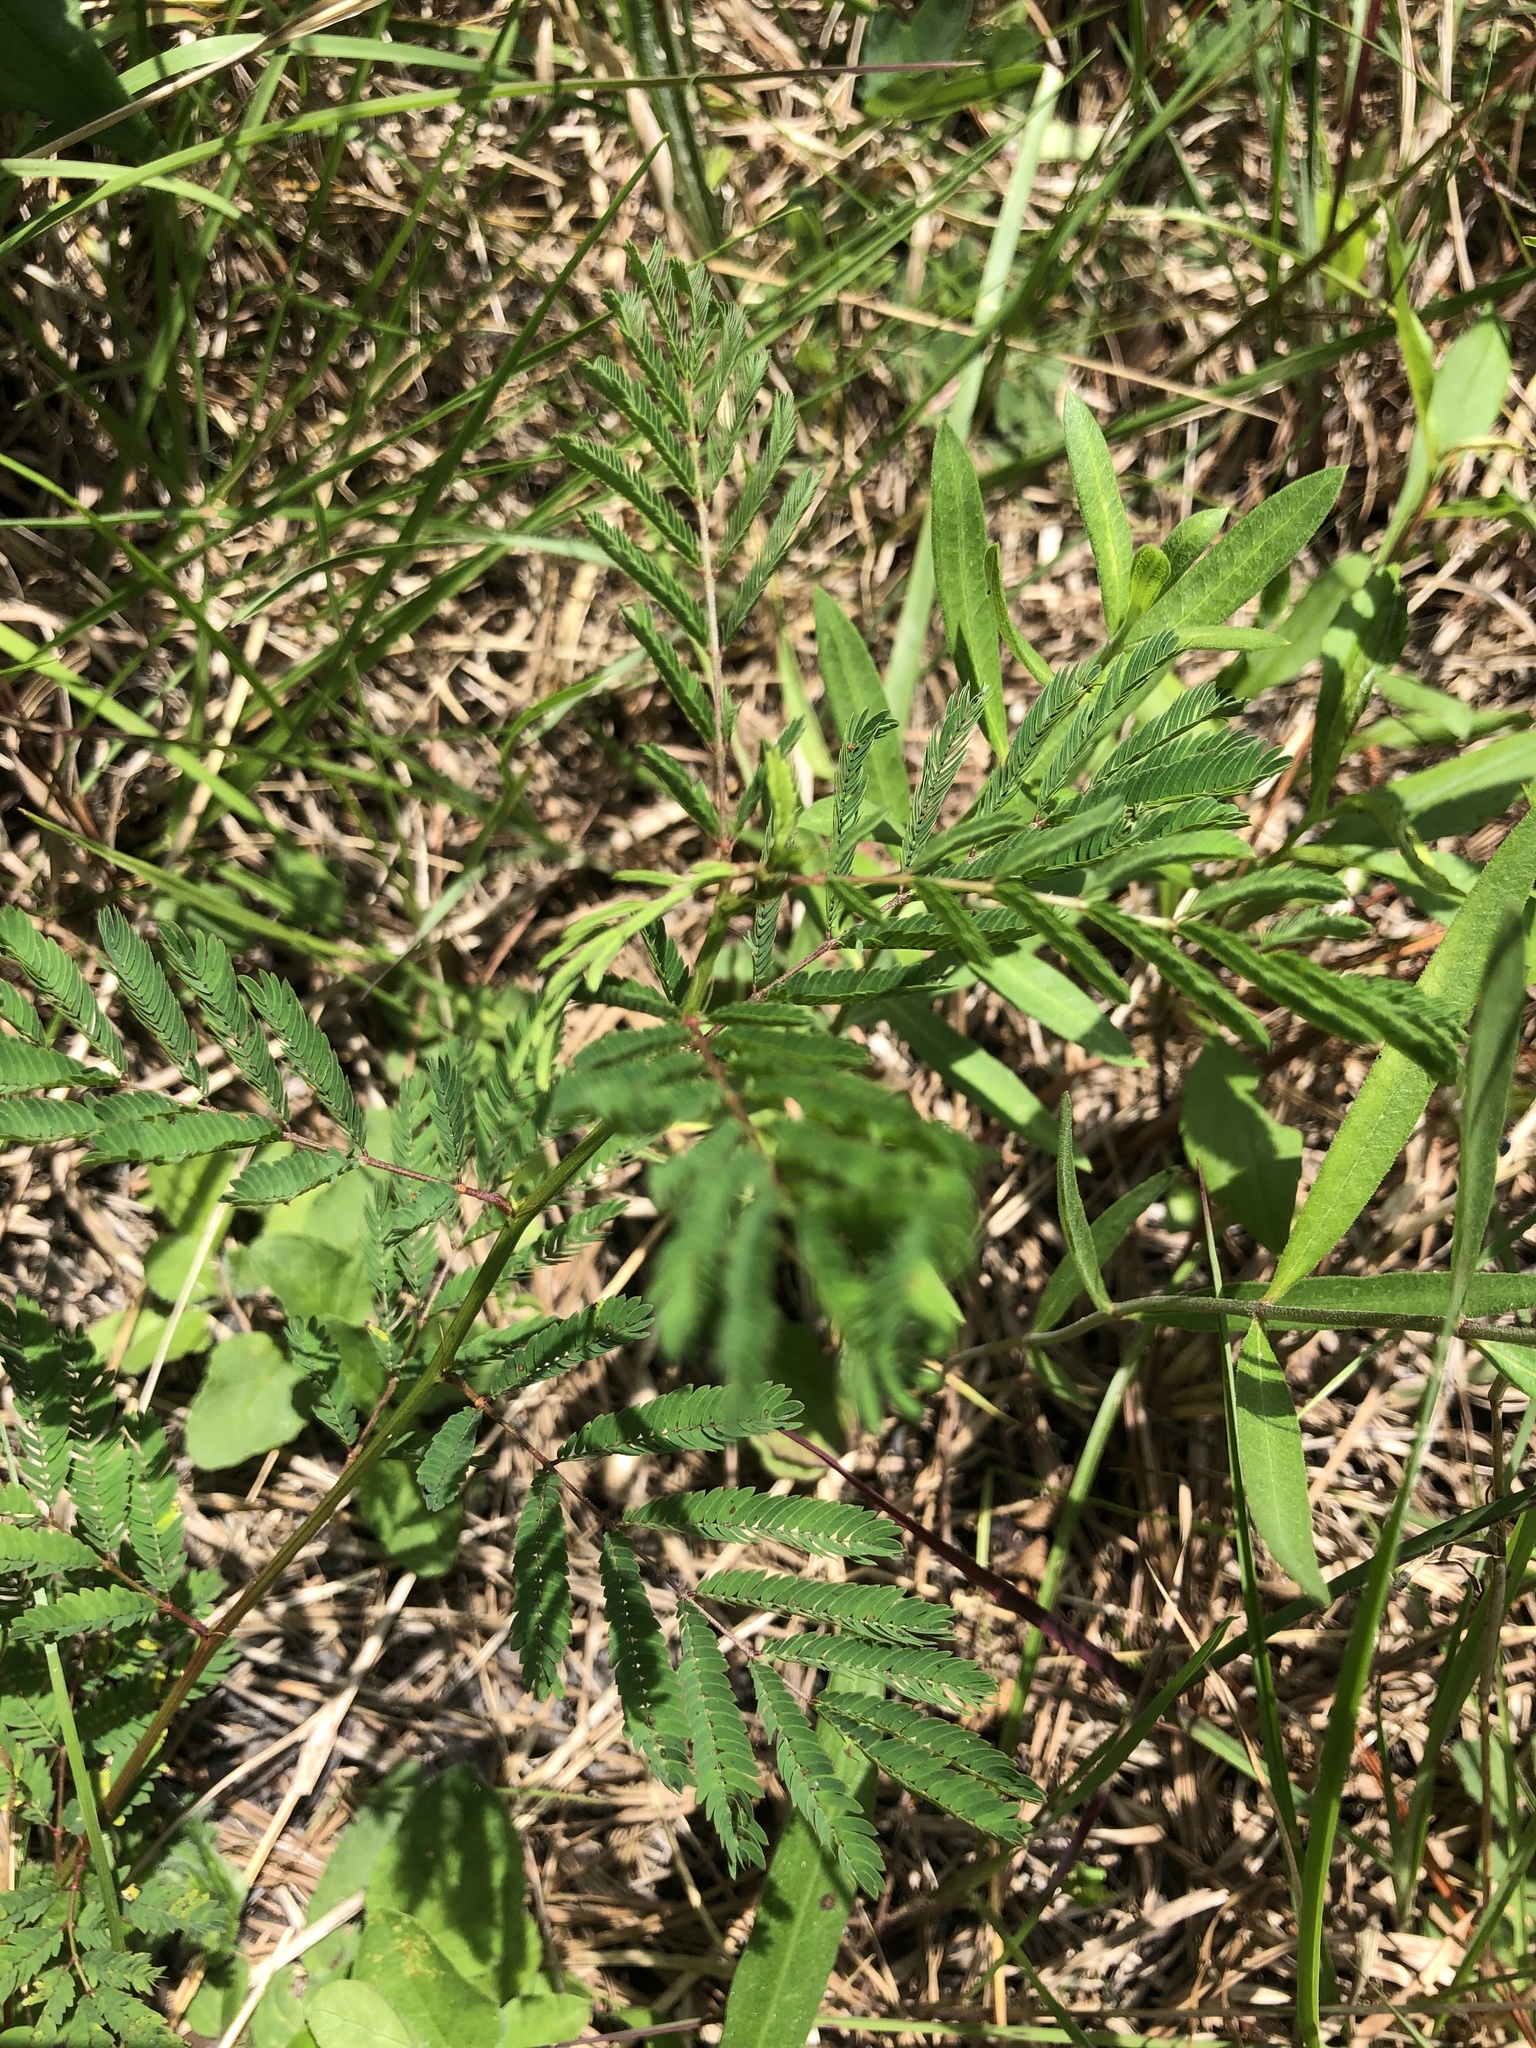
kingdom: Plantae
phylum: Tracheophyta
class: Magnoliopsida
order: Fabales
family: Fabaceae
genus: Desmanthus
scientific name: Desmanthus illinoensis
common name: Illinois bundle-flower
